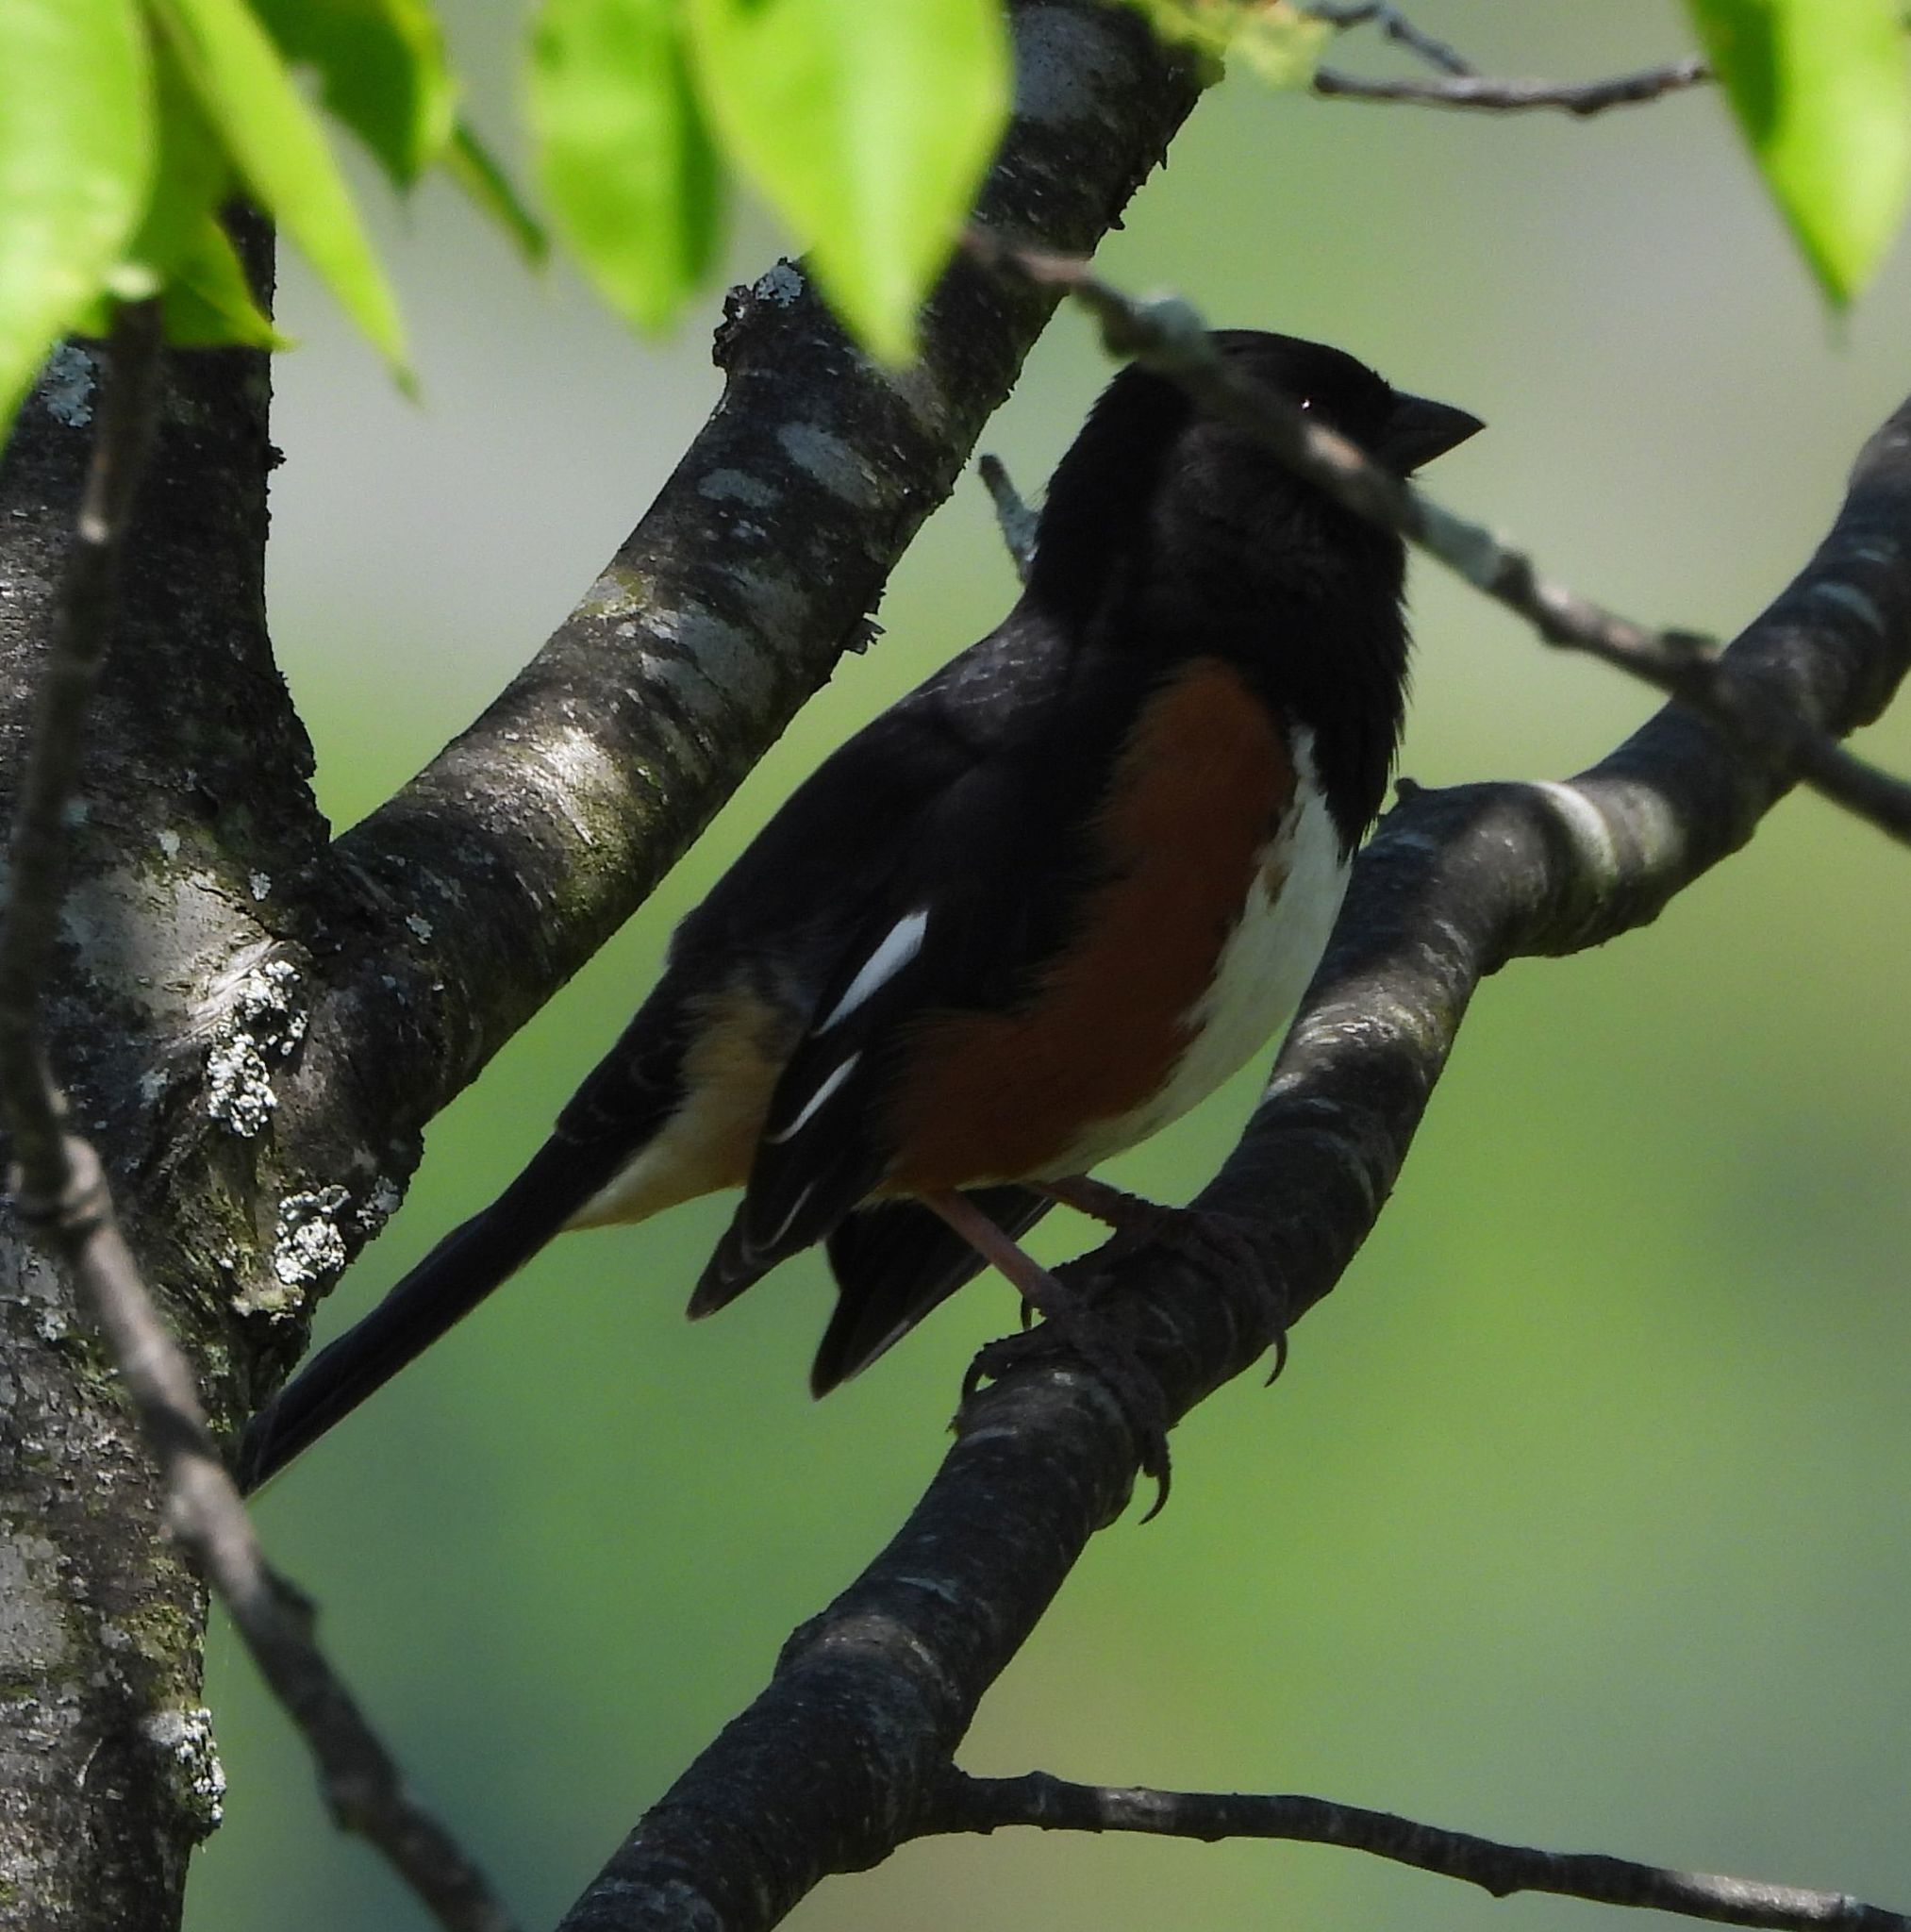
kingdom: Animalia
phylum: Chordata
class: Aves
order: Passeriformes
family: Passerellidae
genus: Pipilo
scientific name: Pipilo erythrophthalmus
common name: Eastern towhee
